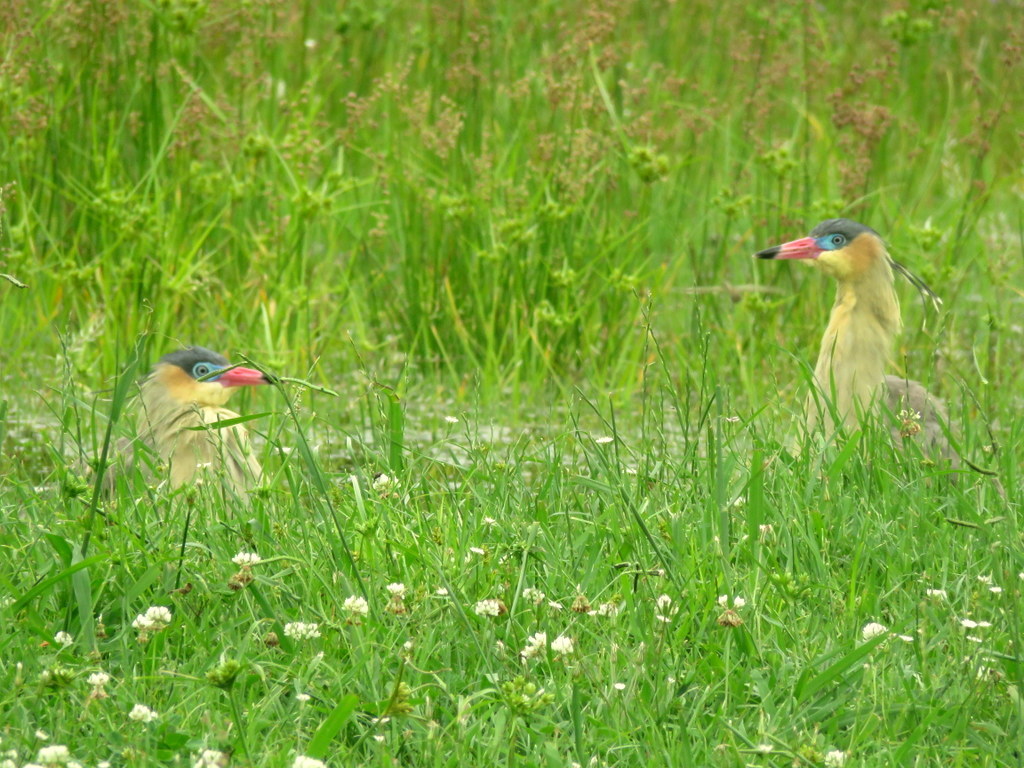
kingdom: Animalia
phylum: Chordata
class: Aves
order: Pelecaniformes
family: Ardeidae
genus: Syrigma
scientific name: Syrigma sibilatrix
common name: Whistling heron
